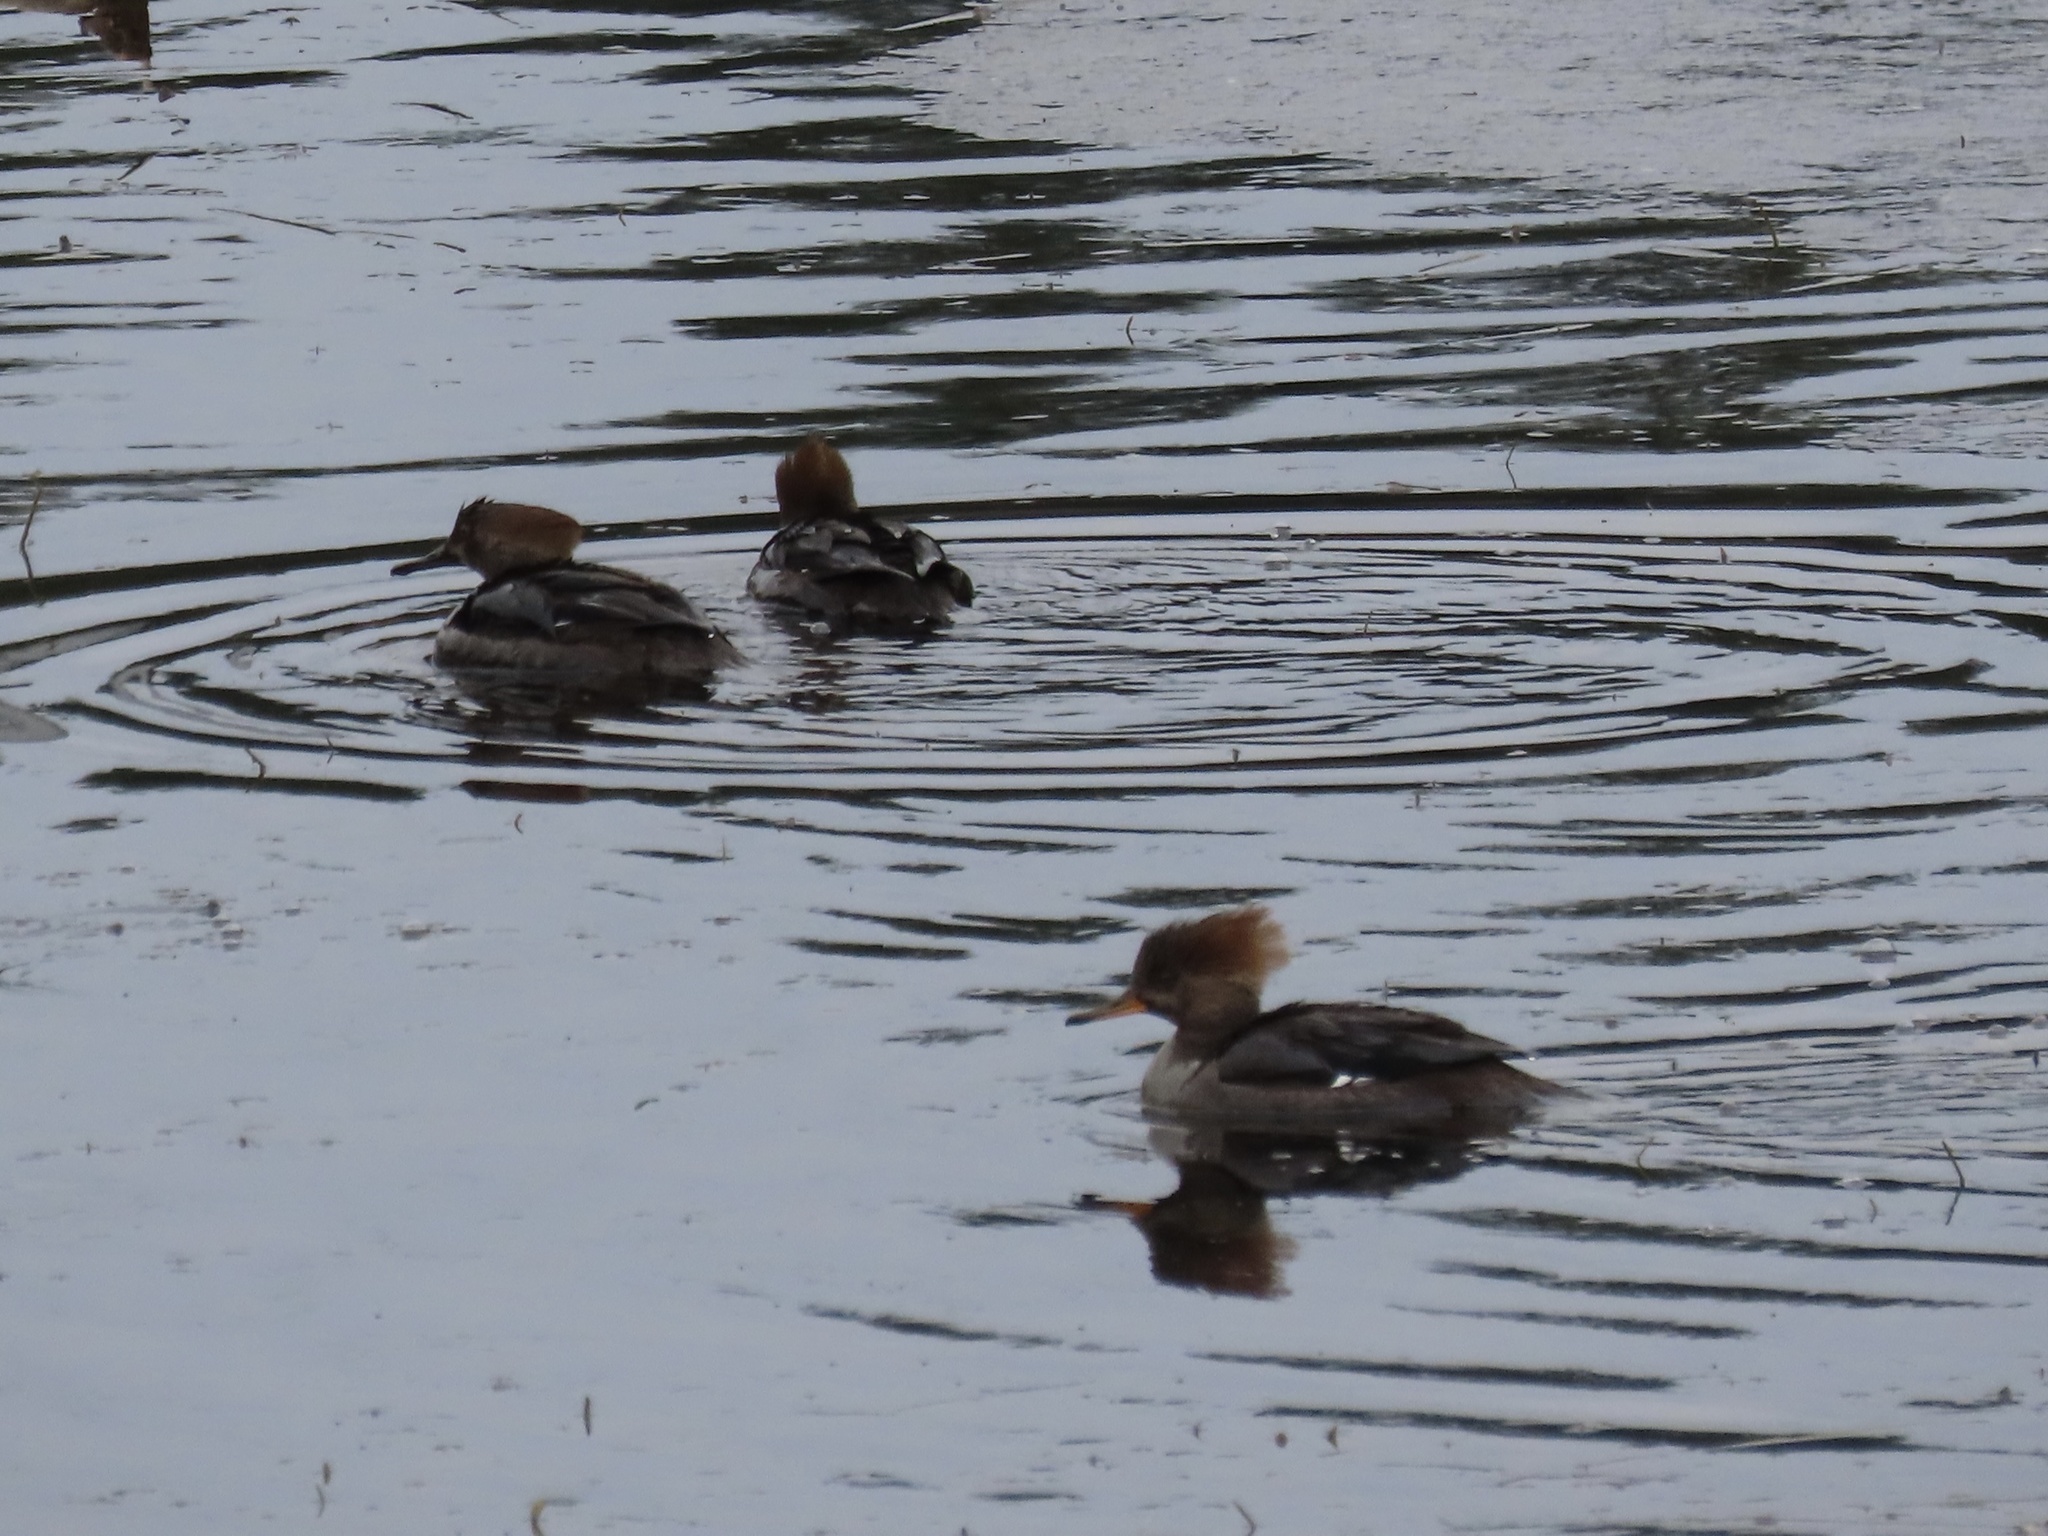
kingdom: Animalia
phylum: Chordata
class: Aves
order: Anseriformes
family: Anatidae
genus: Lophodytes
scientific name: Lophodytes cucullatus
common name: Hooded merganser
